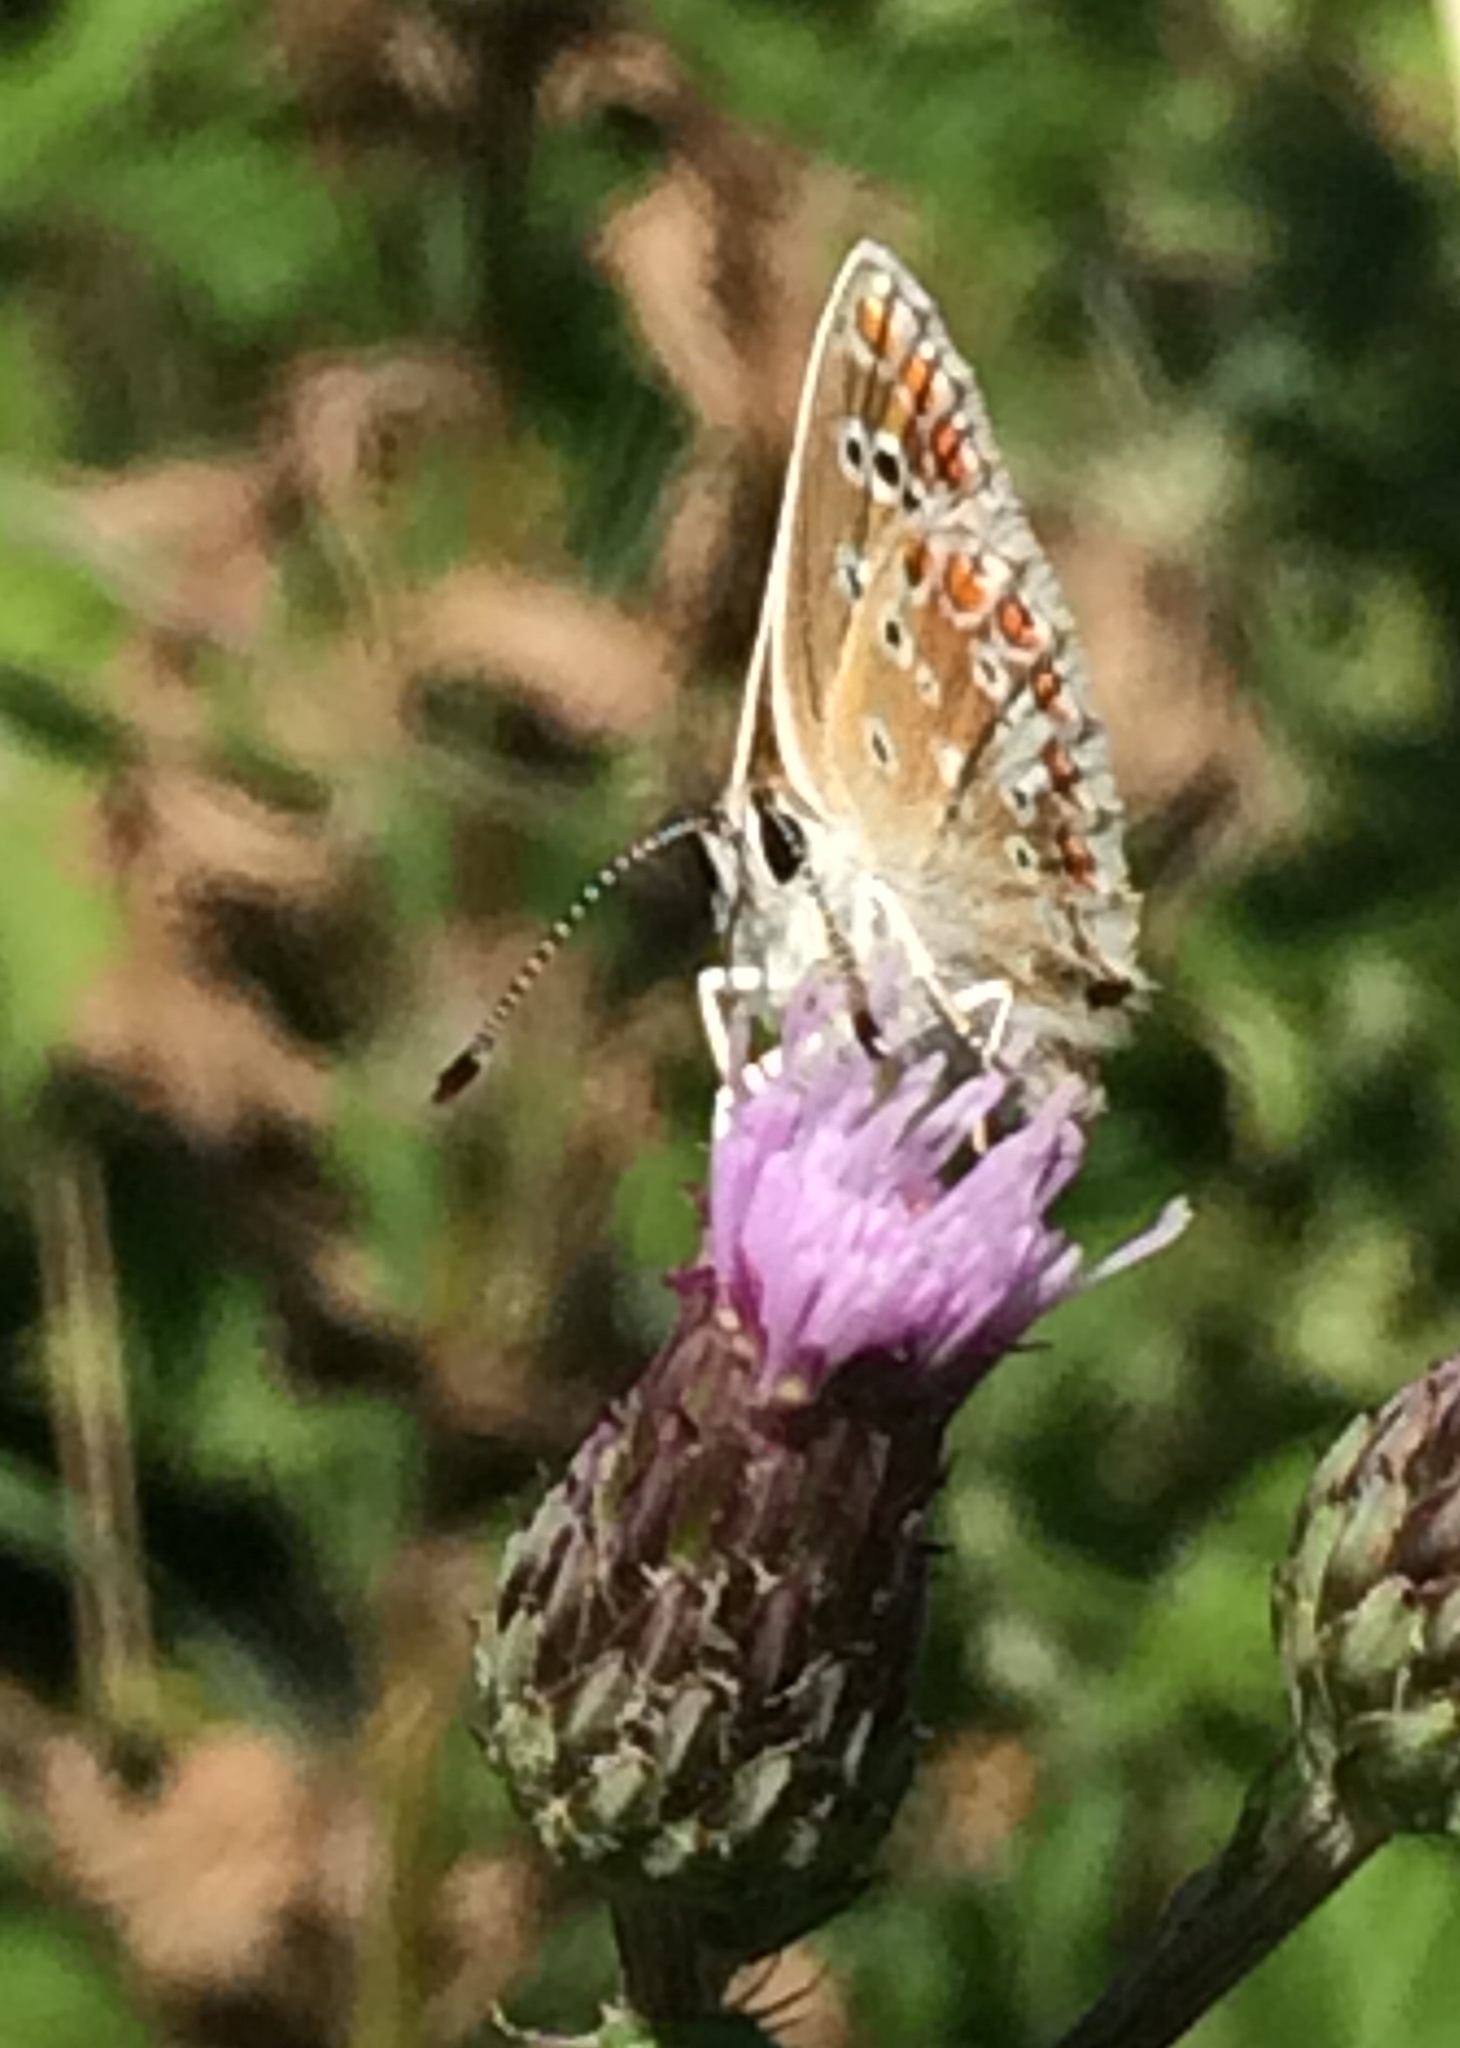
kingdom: Animalia
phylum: Arthropoda
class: Insecta
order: Lepidoptera
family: Lycaenidae
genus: Aricia
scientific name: Aricia agestis
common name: Brown argus
